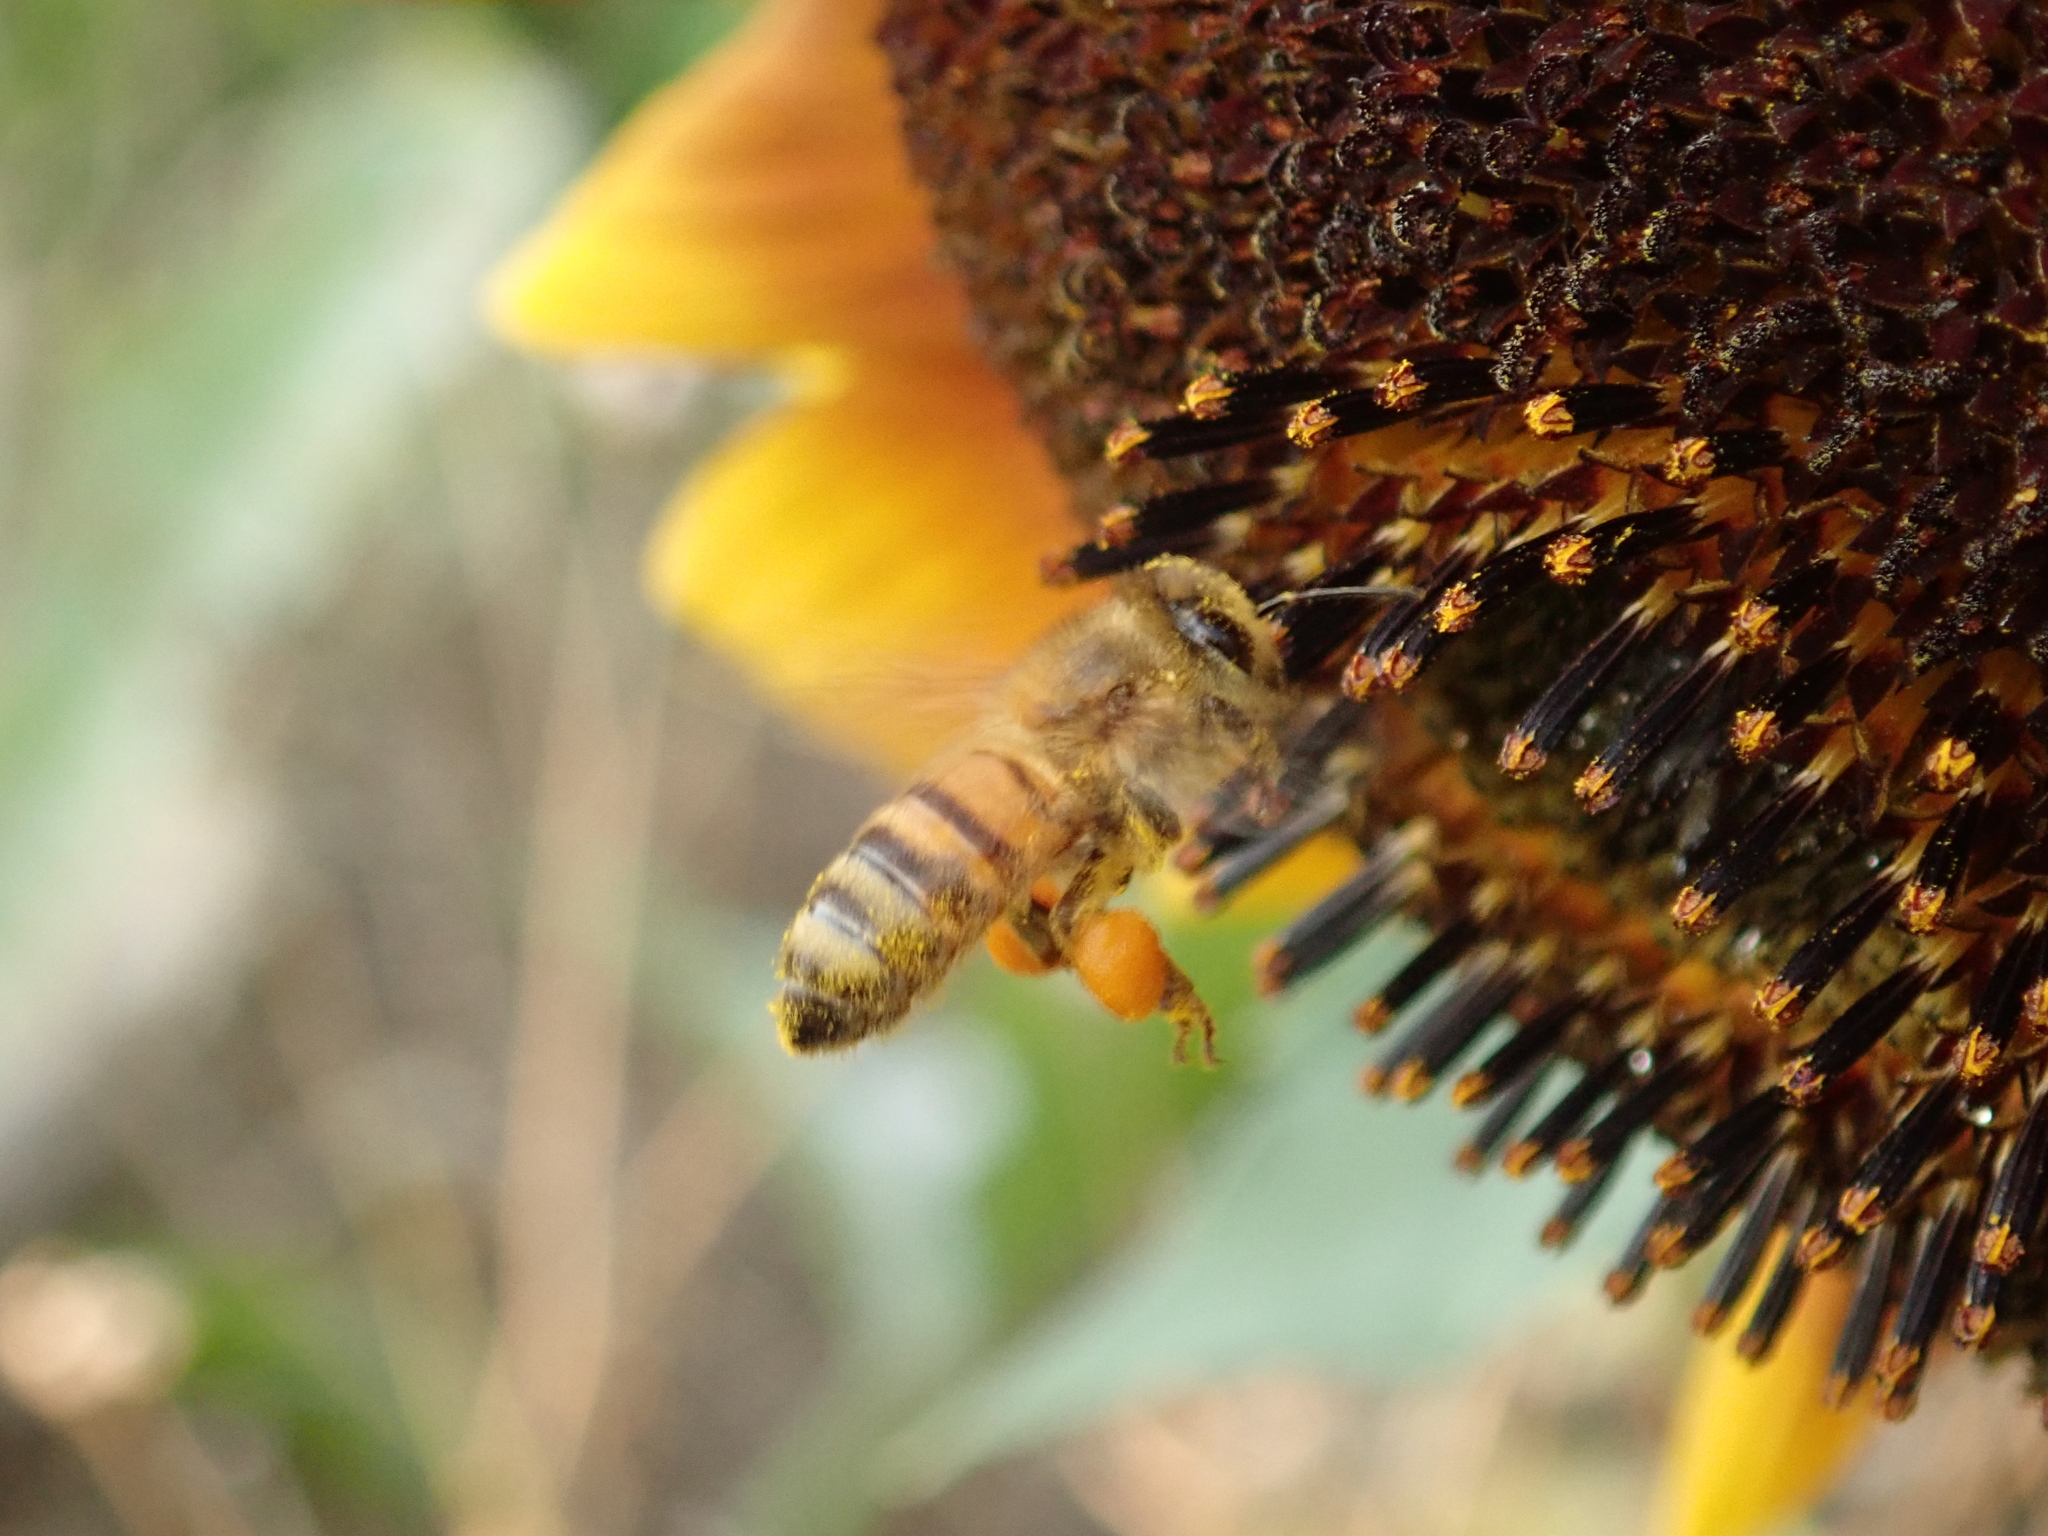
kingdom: Animalia
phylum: Arthropoda
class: Insecta
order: Hymenoptera
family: Apidae
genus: Apis
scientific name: Apis mellifera
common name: Honey bee
